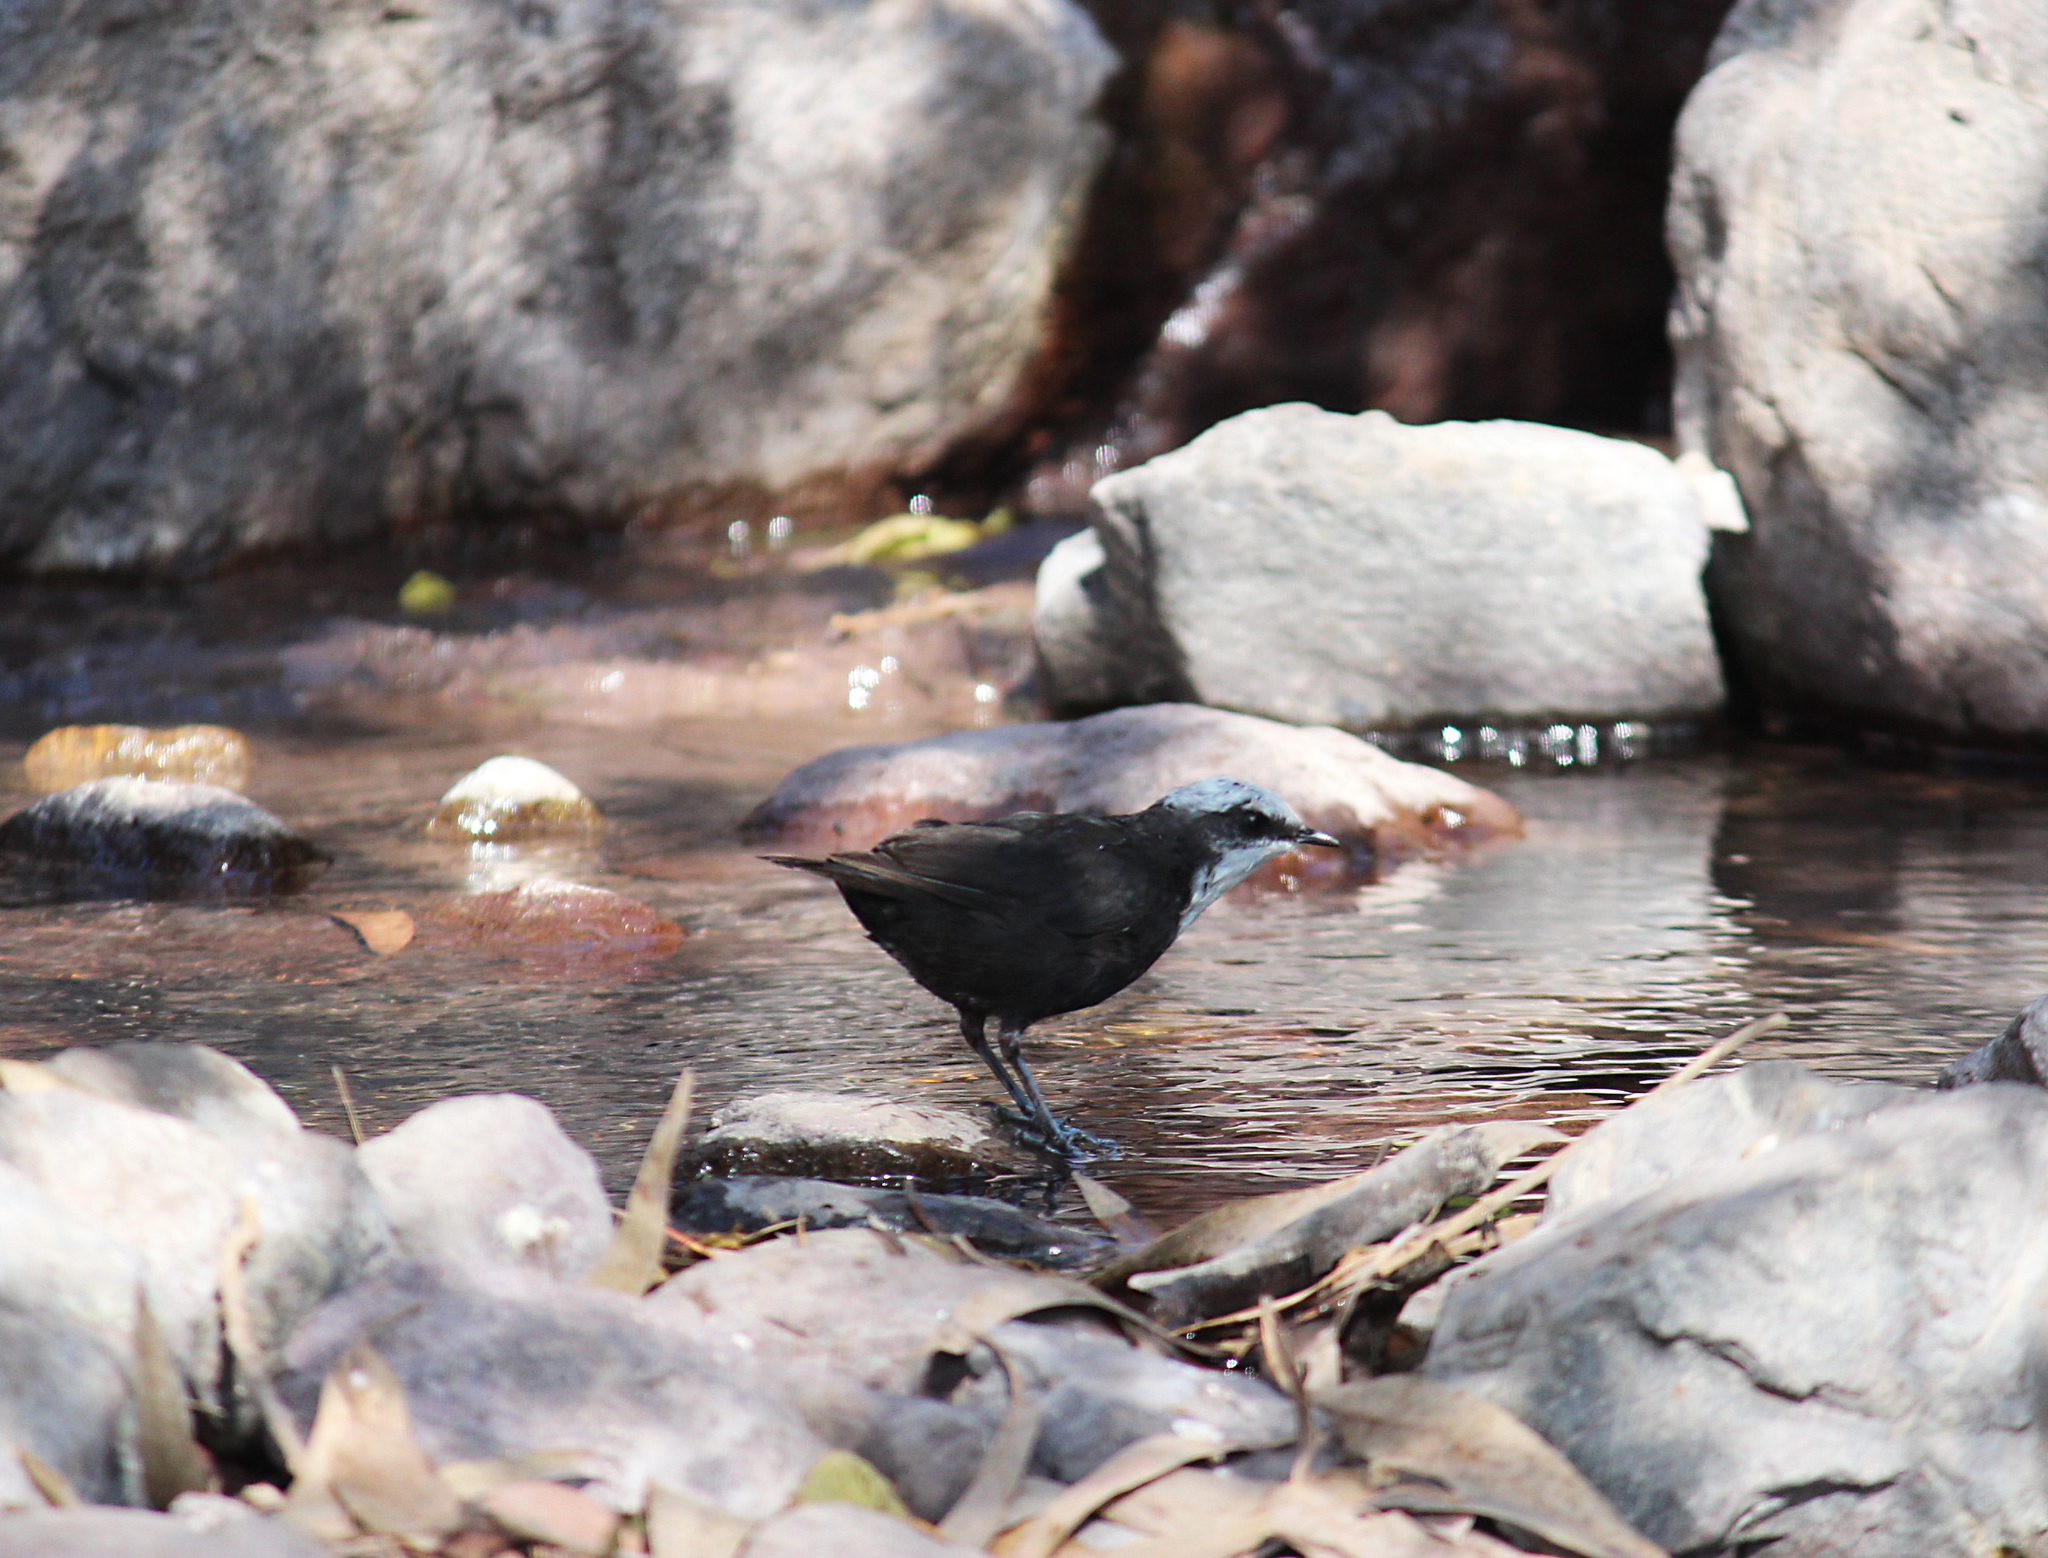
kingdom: Animalia
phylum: Chordata
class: Aves
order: Passeriformes
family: Cinclidae
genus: Cinclus
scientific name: Cinclus leucocephalus
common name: White-capped dipper
